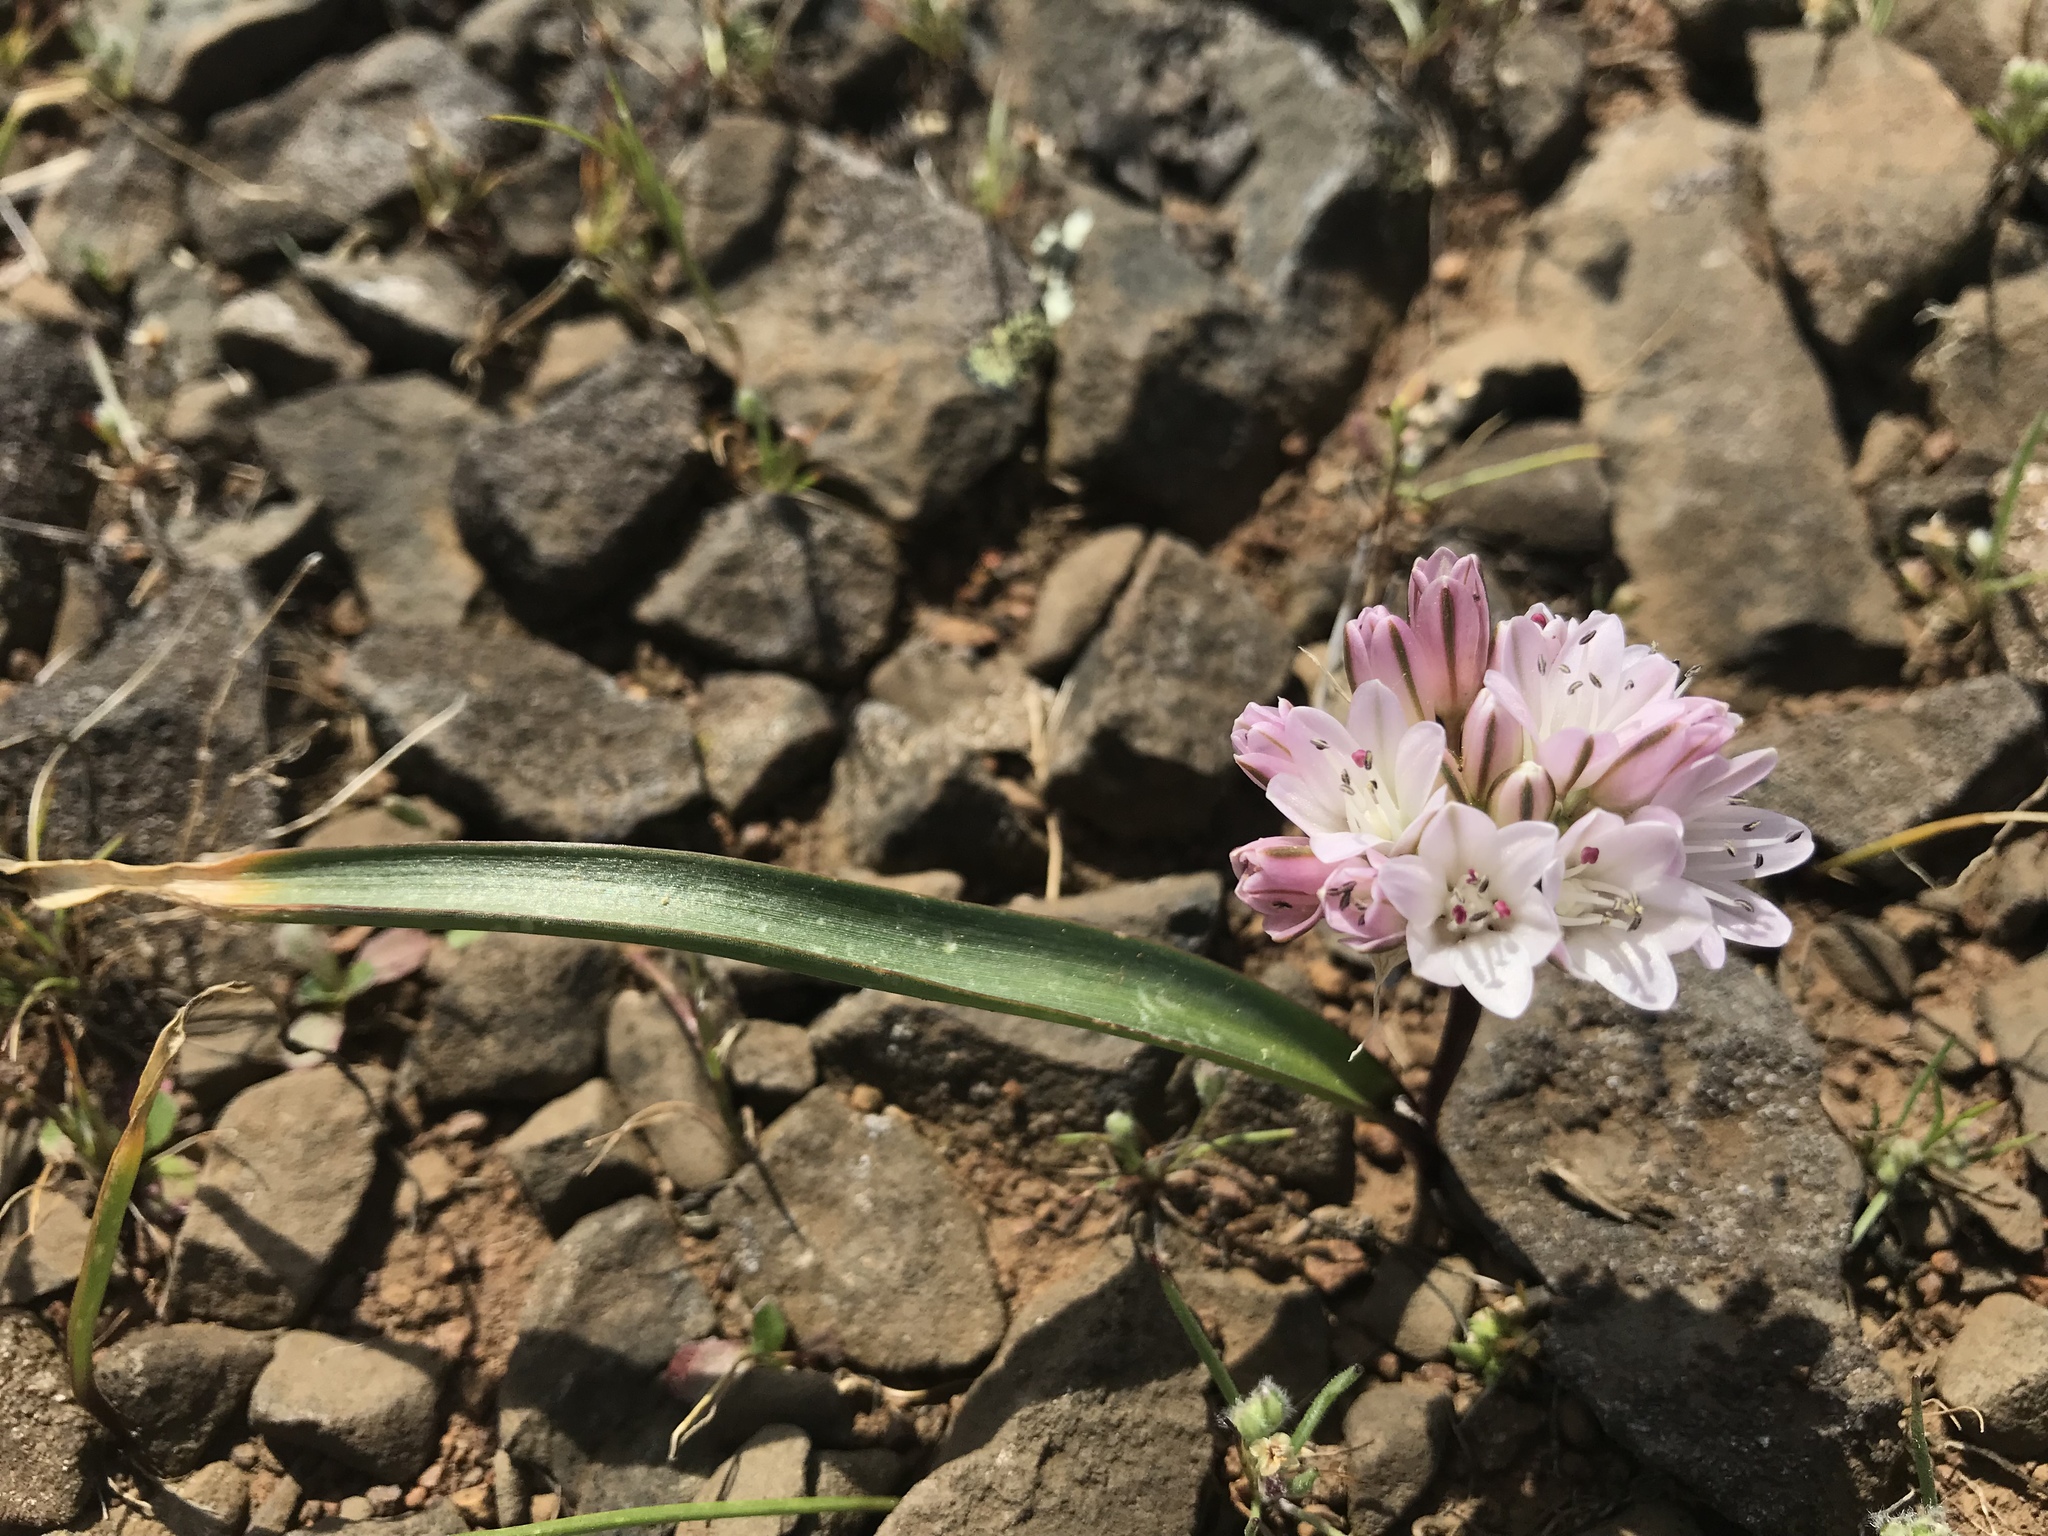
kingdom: Plantae
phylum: Tracheophyta
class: Liliopsida
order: Asparagales
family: Amaryllidaceae
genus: Allium
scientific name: Allium cratericola
